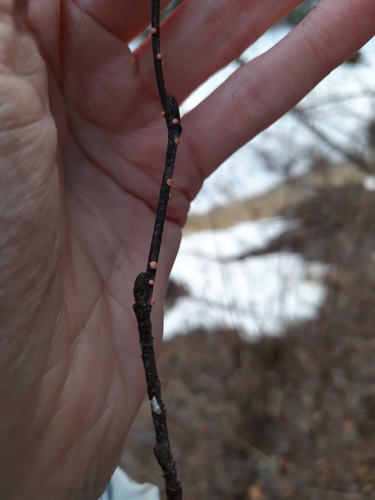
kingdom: Fungi
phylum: Ascomycota
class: Sordariomycetes
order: Hypocreales
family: Nectriaceae
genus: Nectria
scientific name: Nectria cinnabarina
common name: Coral spot
